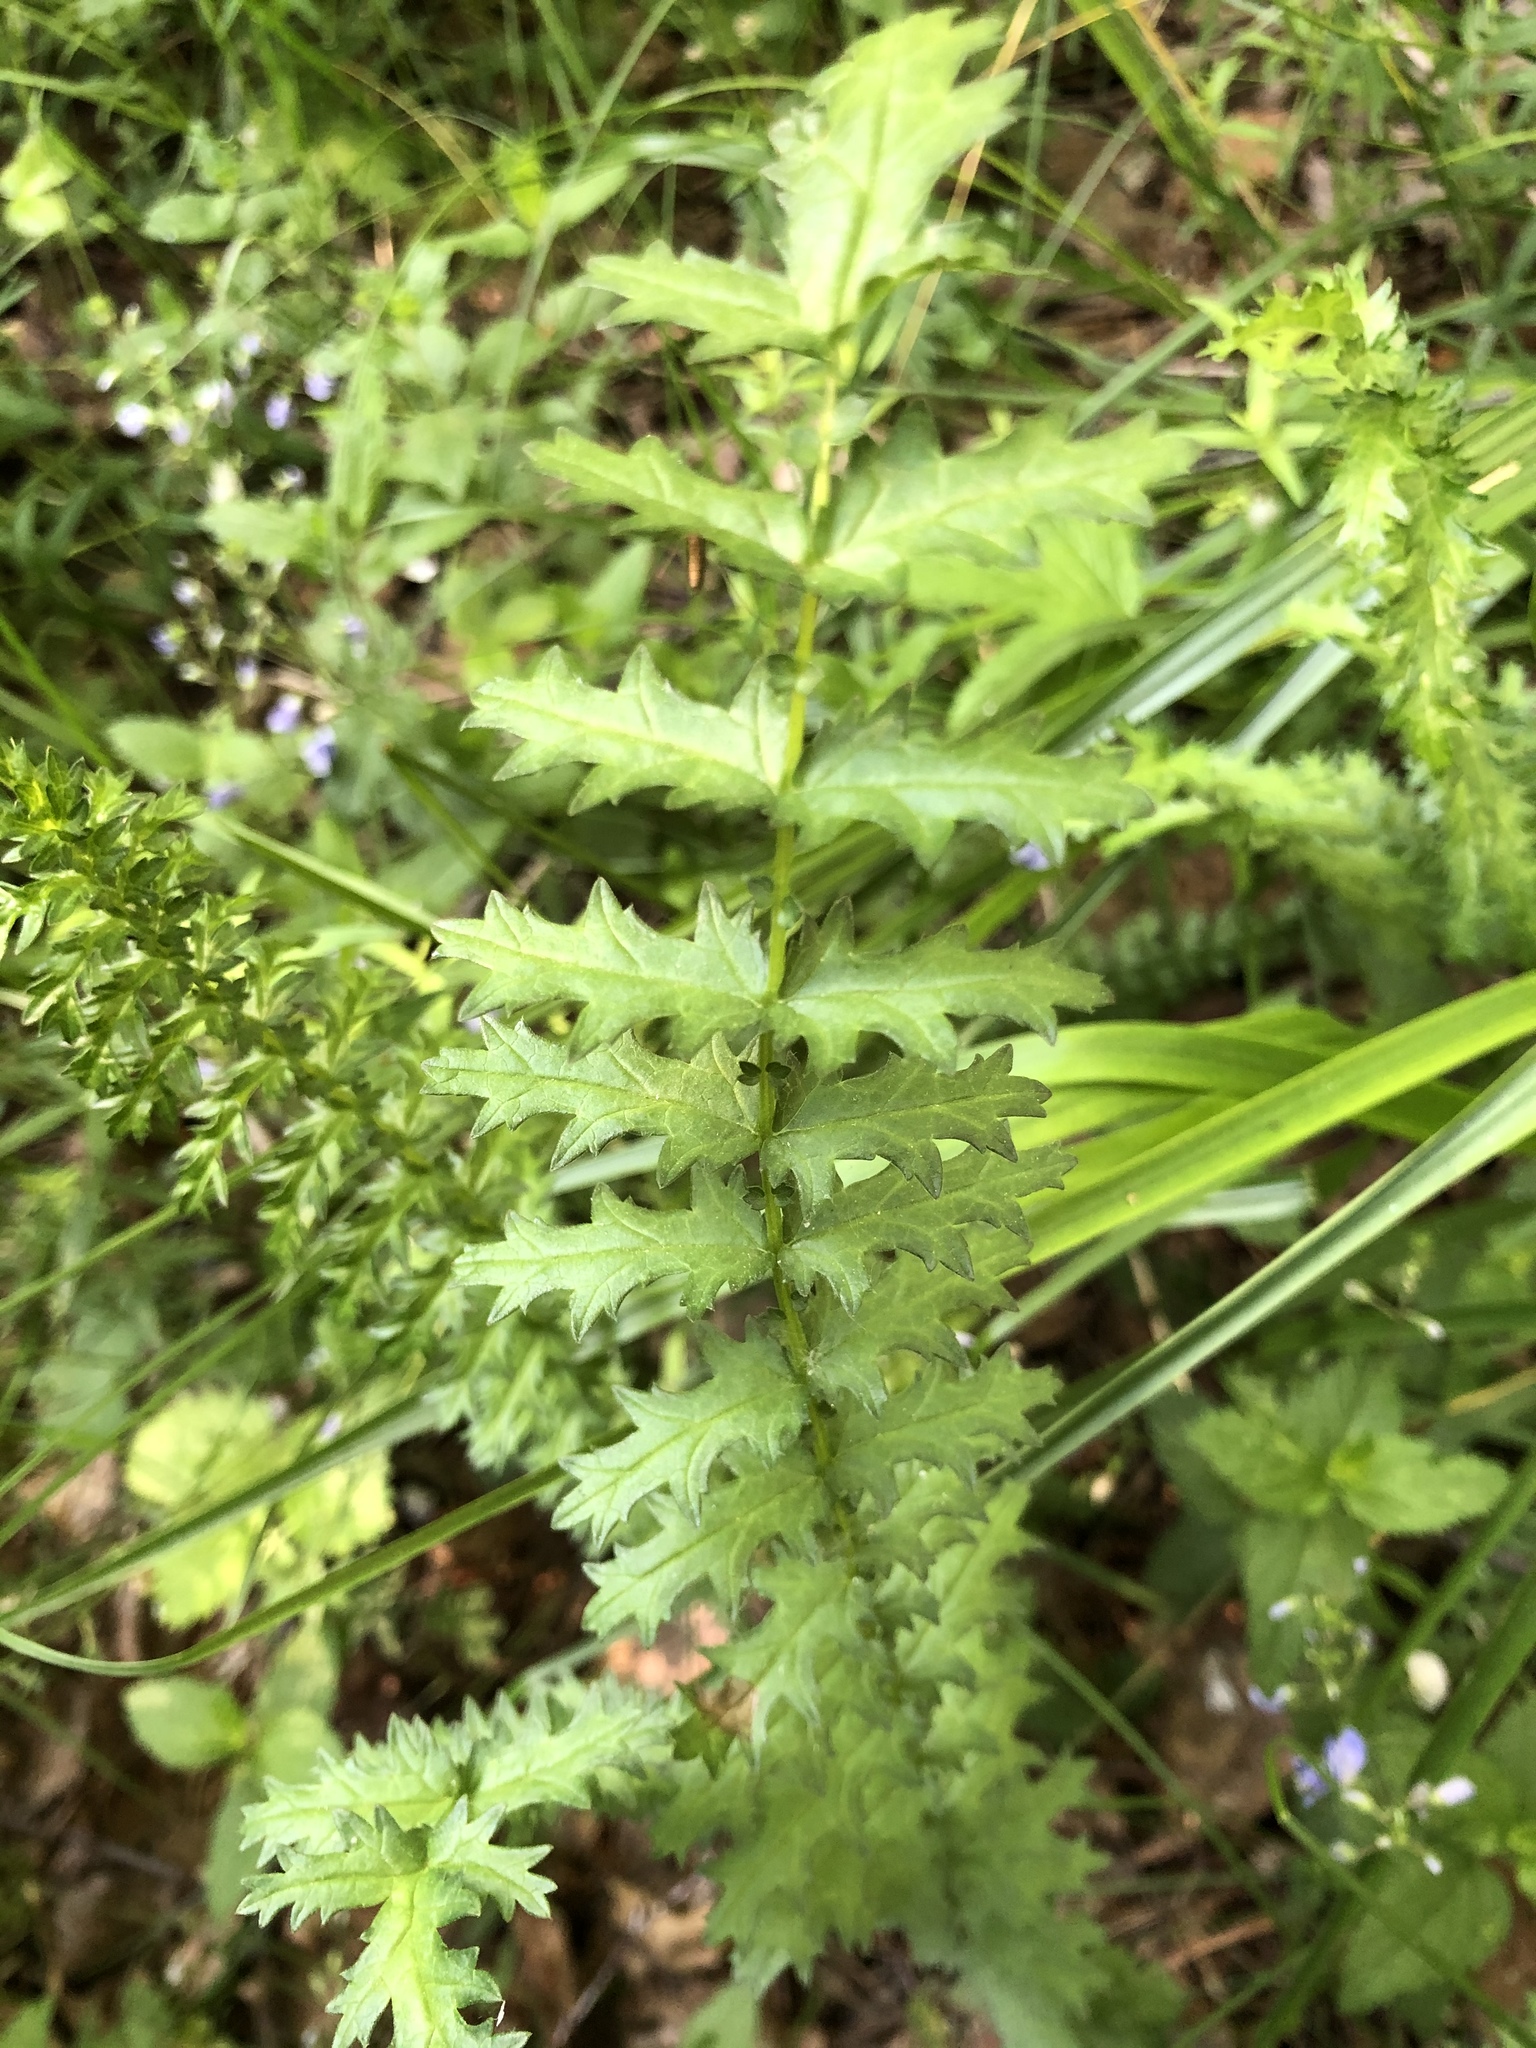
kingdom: Plantae
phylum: Tracheophyta
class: Magnoliopsida
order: Rosales
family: Rosaceae
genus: Filipendula
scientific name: Filipendula vulgaris
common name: Dropwort
